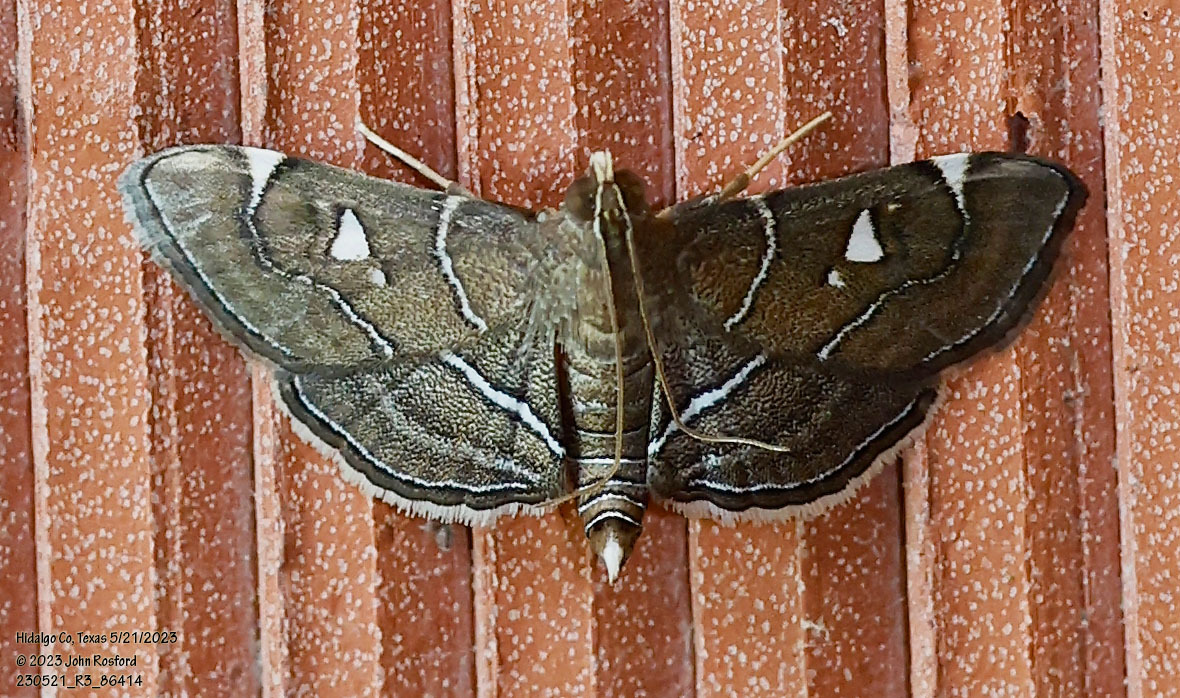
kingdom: Animalia
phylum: Arthropoda
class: Insecta
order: Lepidoptera
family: Crambidae
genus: Lamprosema
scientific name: Lamprosema victoriae
